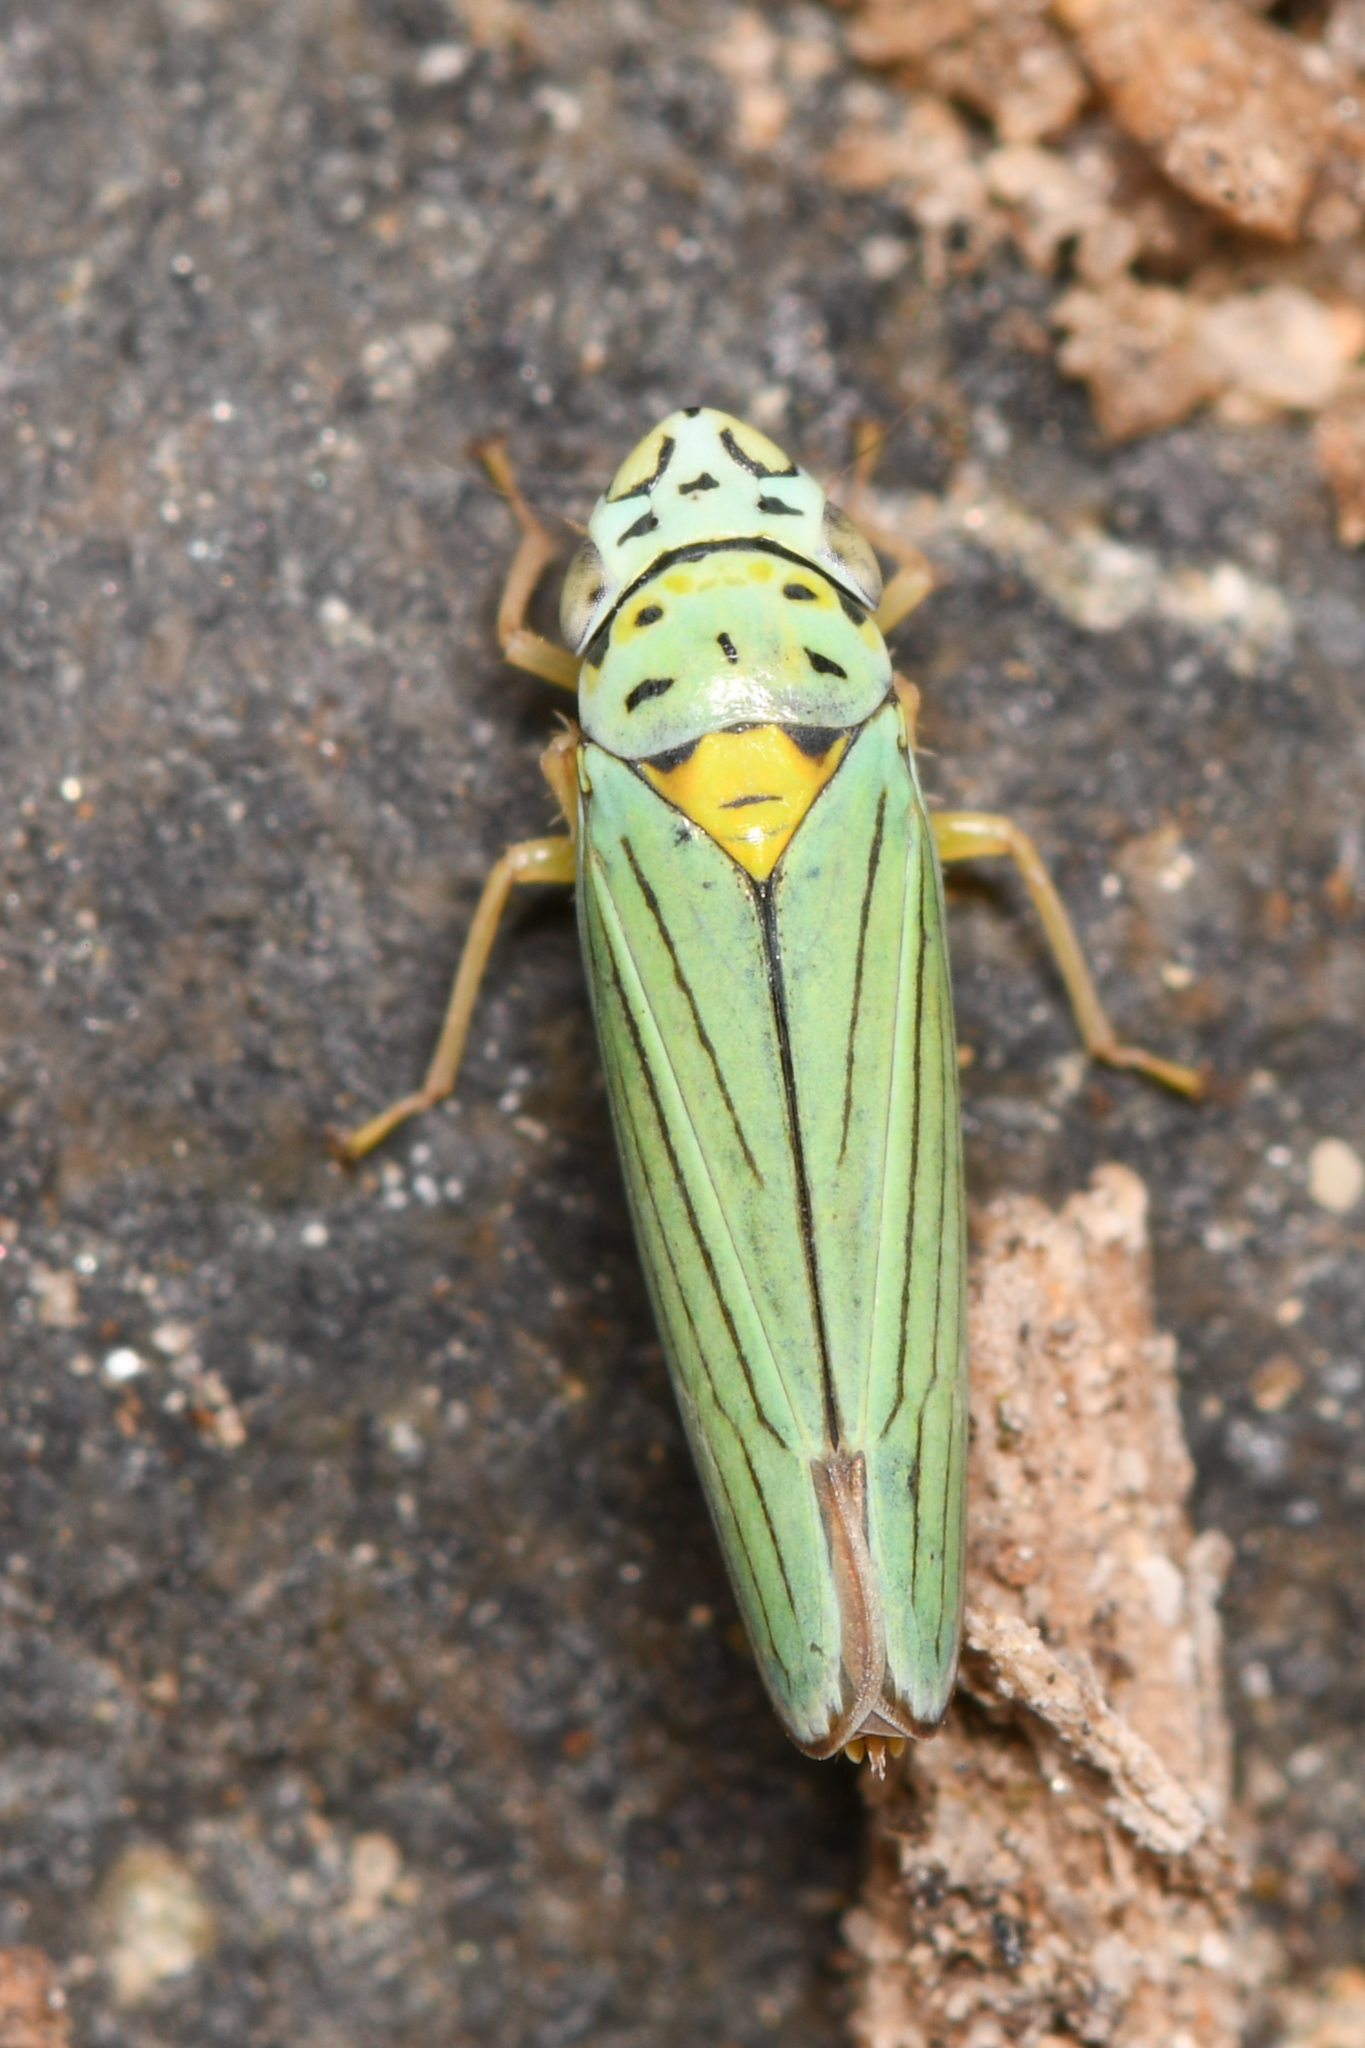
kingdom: Animalia
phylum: Arthropoda
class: Insecta
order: Hemiptera
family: Cicadellidae
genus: Graphocephala
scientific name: Graphocephala atropunctata
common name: Blue-green sharpshooter
